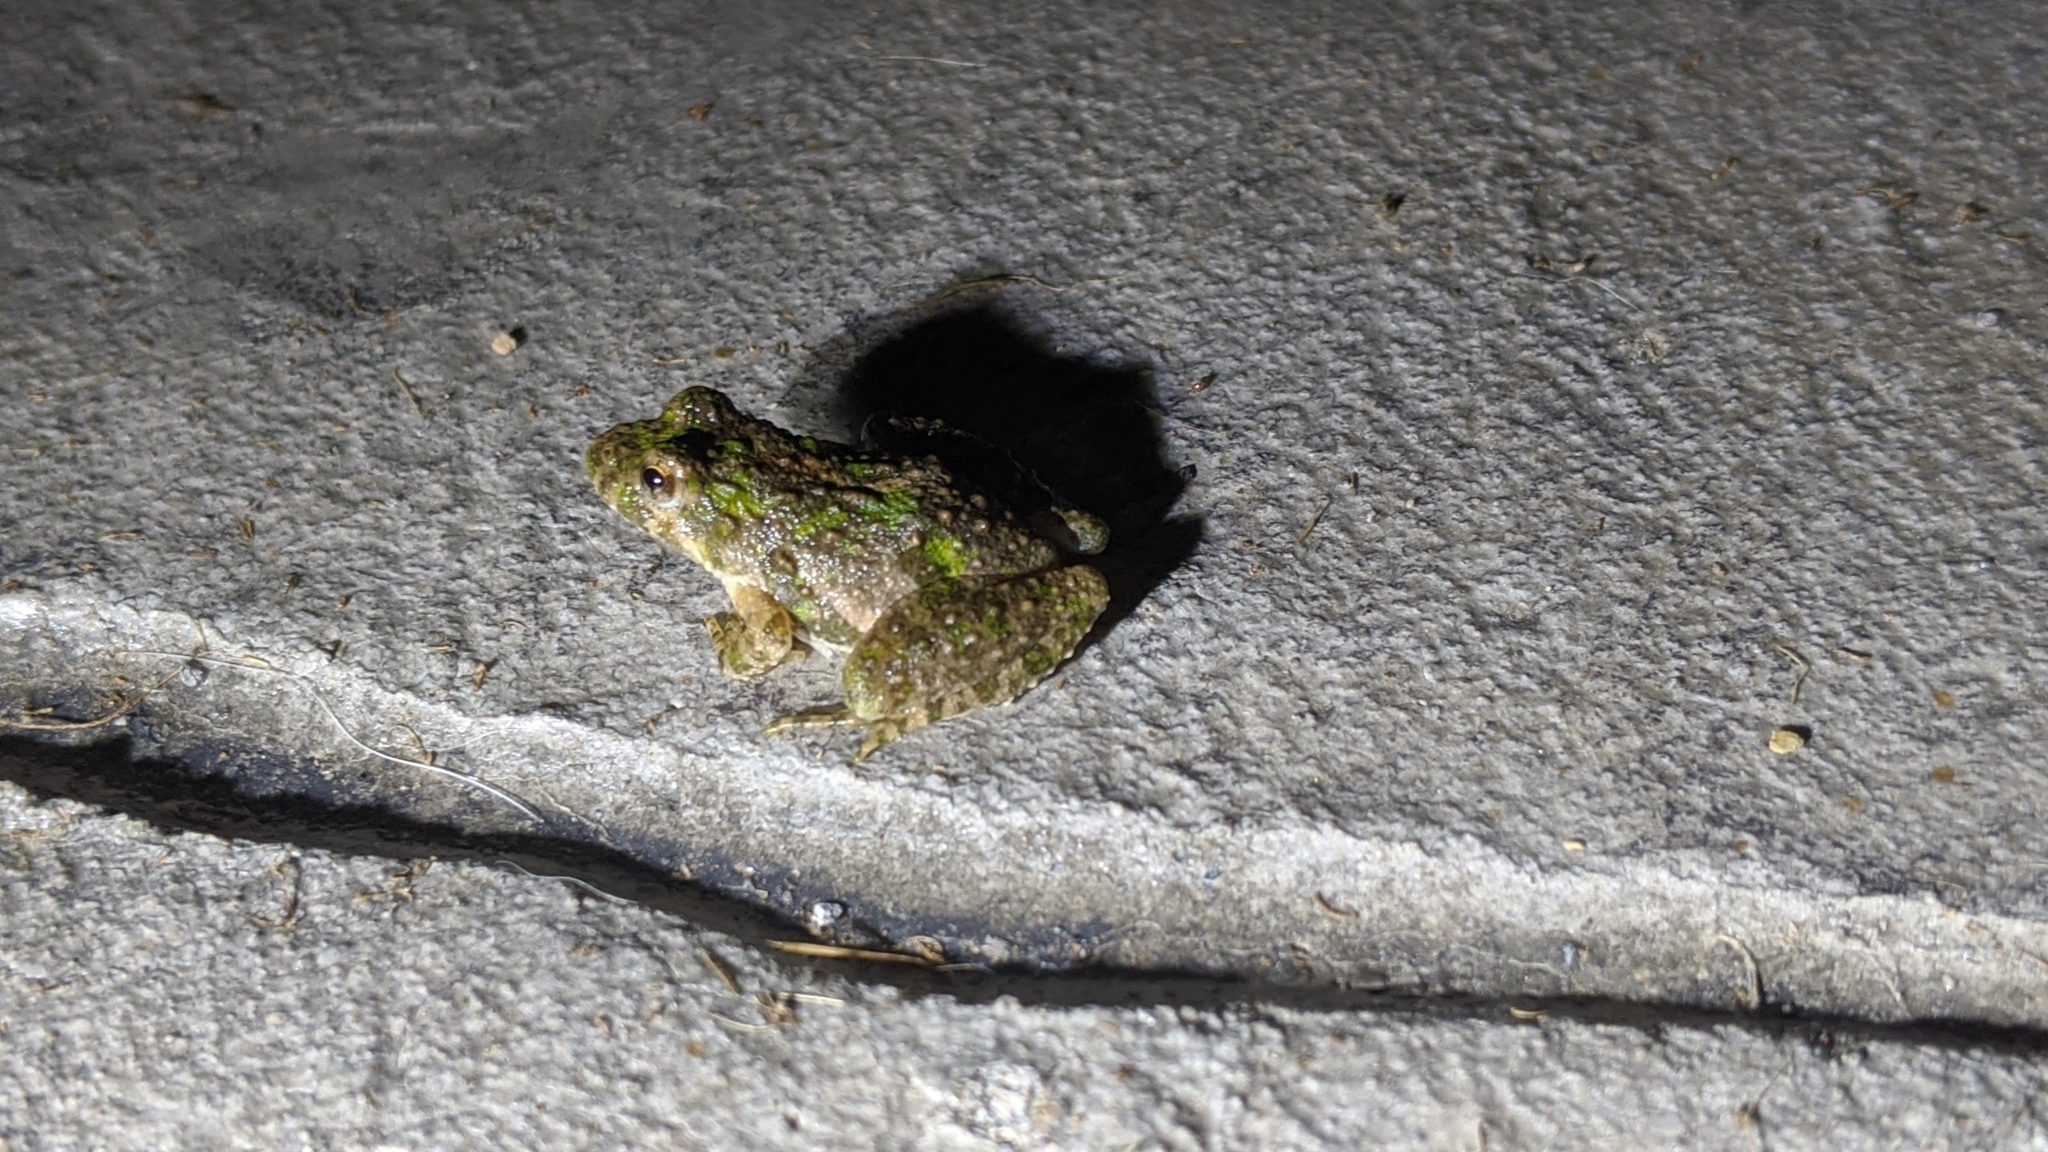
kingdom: Animalia
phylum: Chordata
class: Amphibia
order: Anura
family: Hylidae
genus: Acris
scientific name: Acris crepitans
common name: Northern cricket frog
